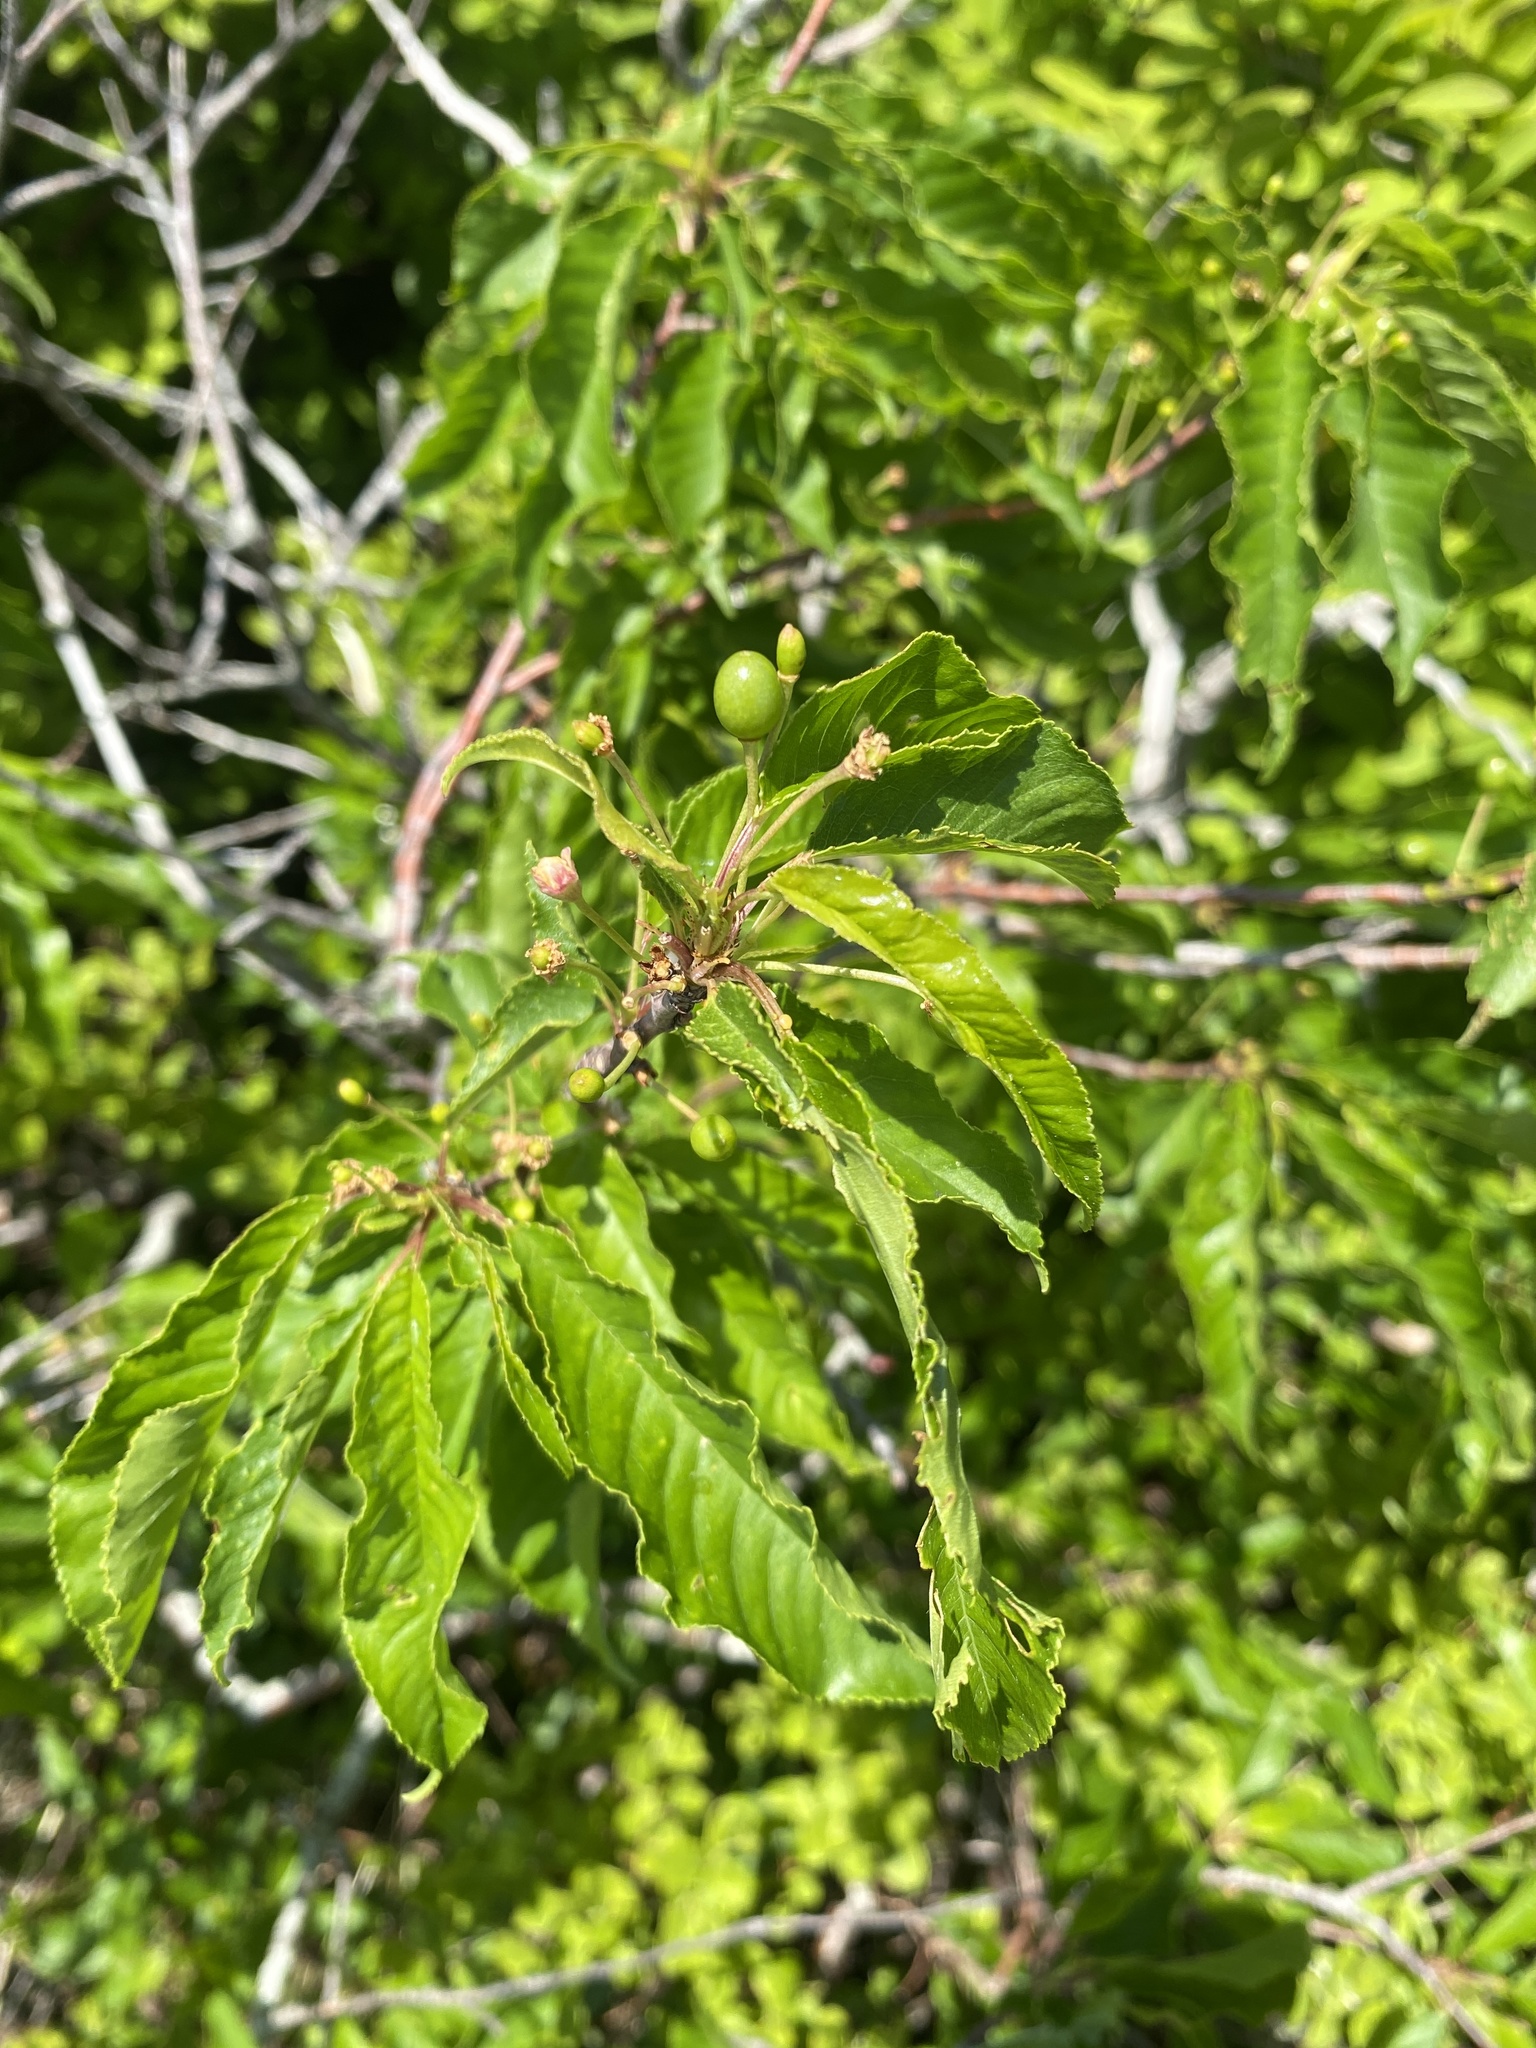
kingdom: Plantae
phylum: Tracheophyta
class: Magnoliopsida
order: Rosales
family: Rosaceae
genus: Prunus
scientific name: Prunus pensylvanica
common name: Pin cherry
